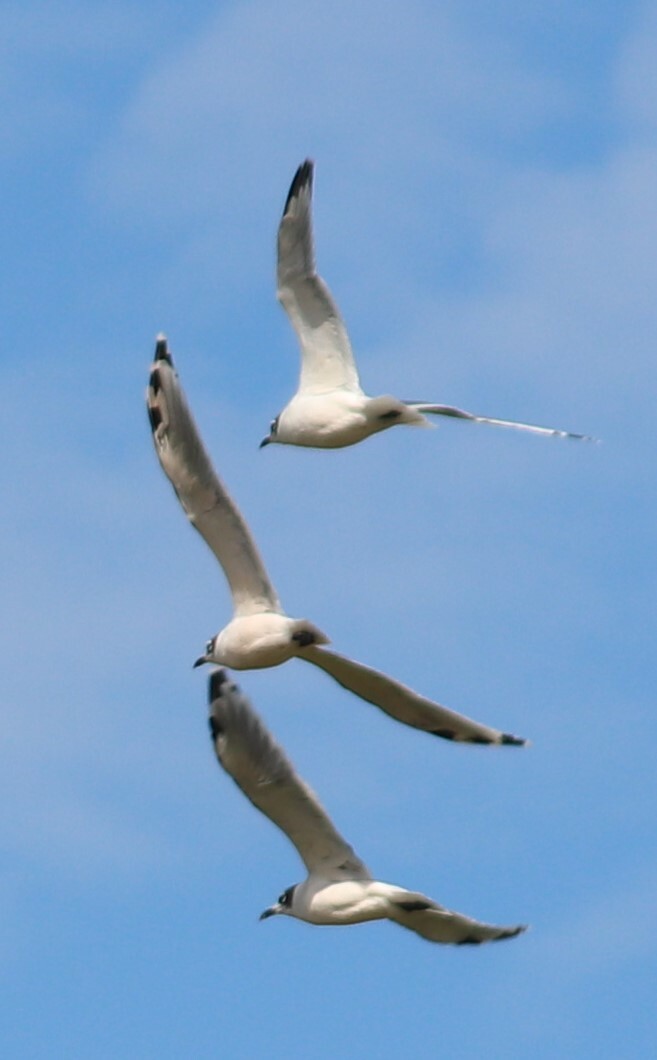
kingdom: Animalia
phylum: Chordata
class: Aves
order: Charadriiformes
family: Laridae
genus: Leucophaeus
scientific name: Leucophaeus pipixcan
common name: Franklin's gull
